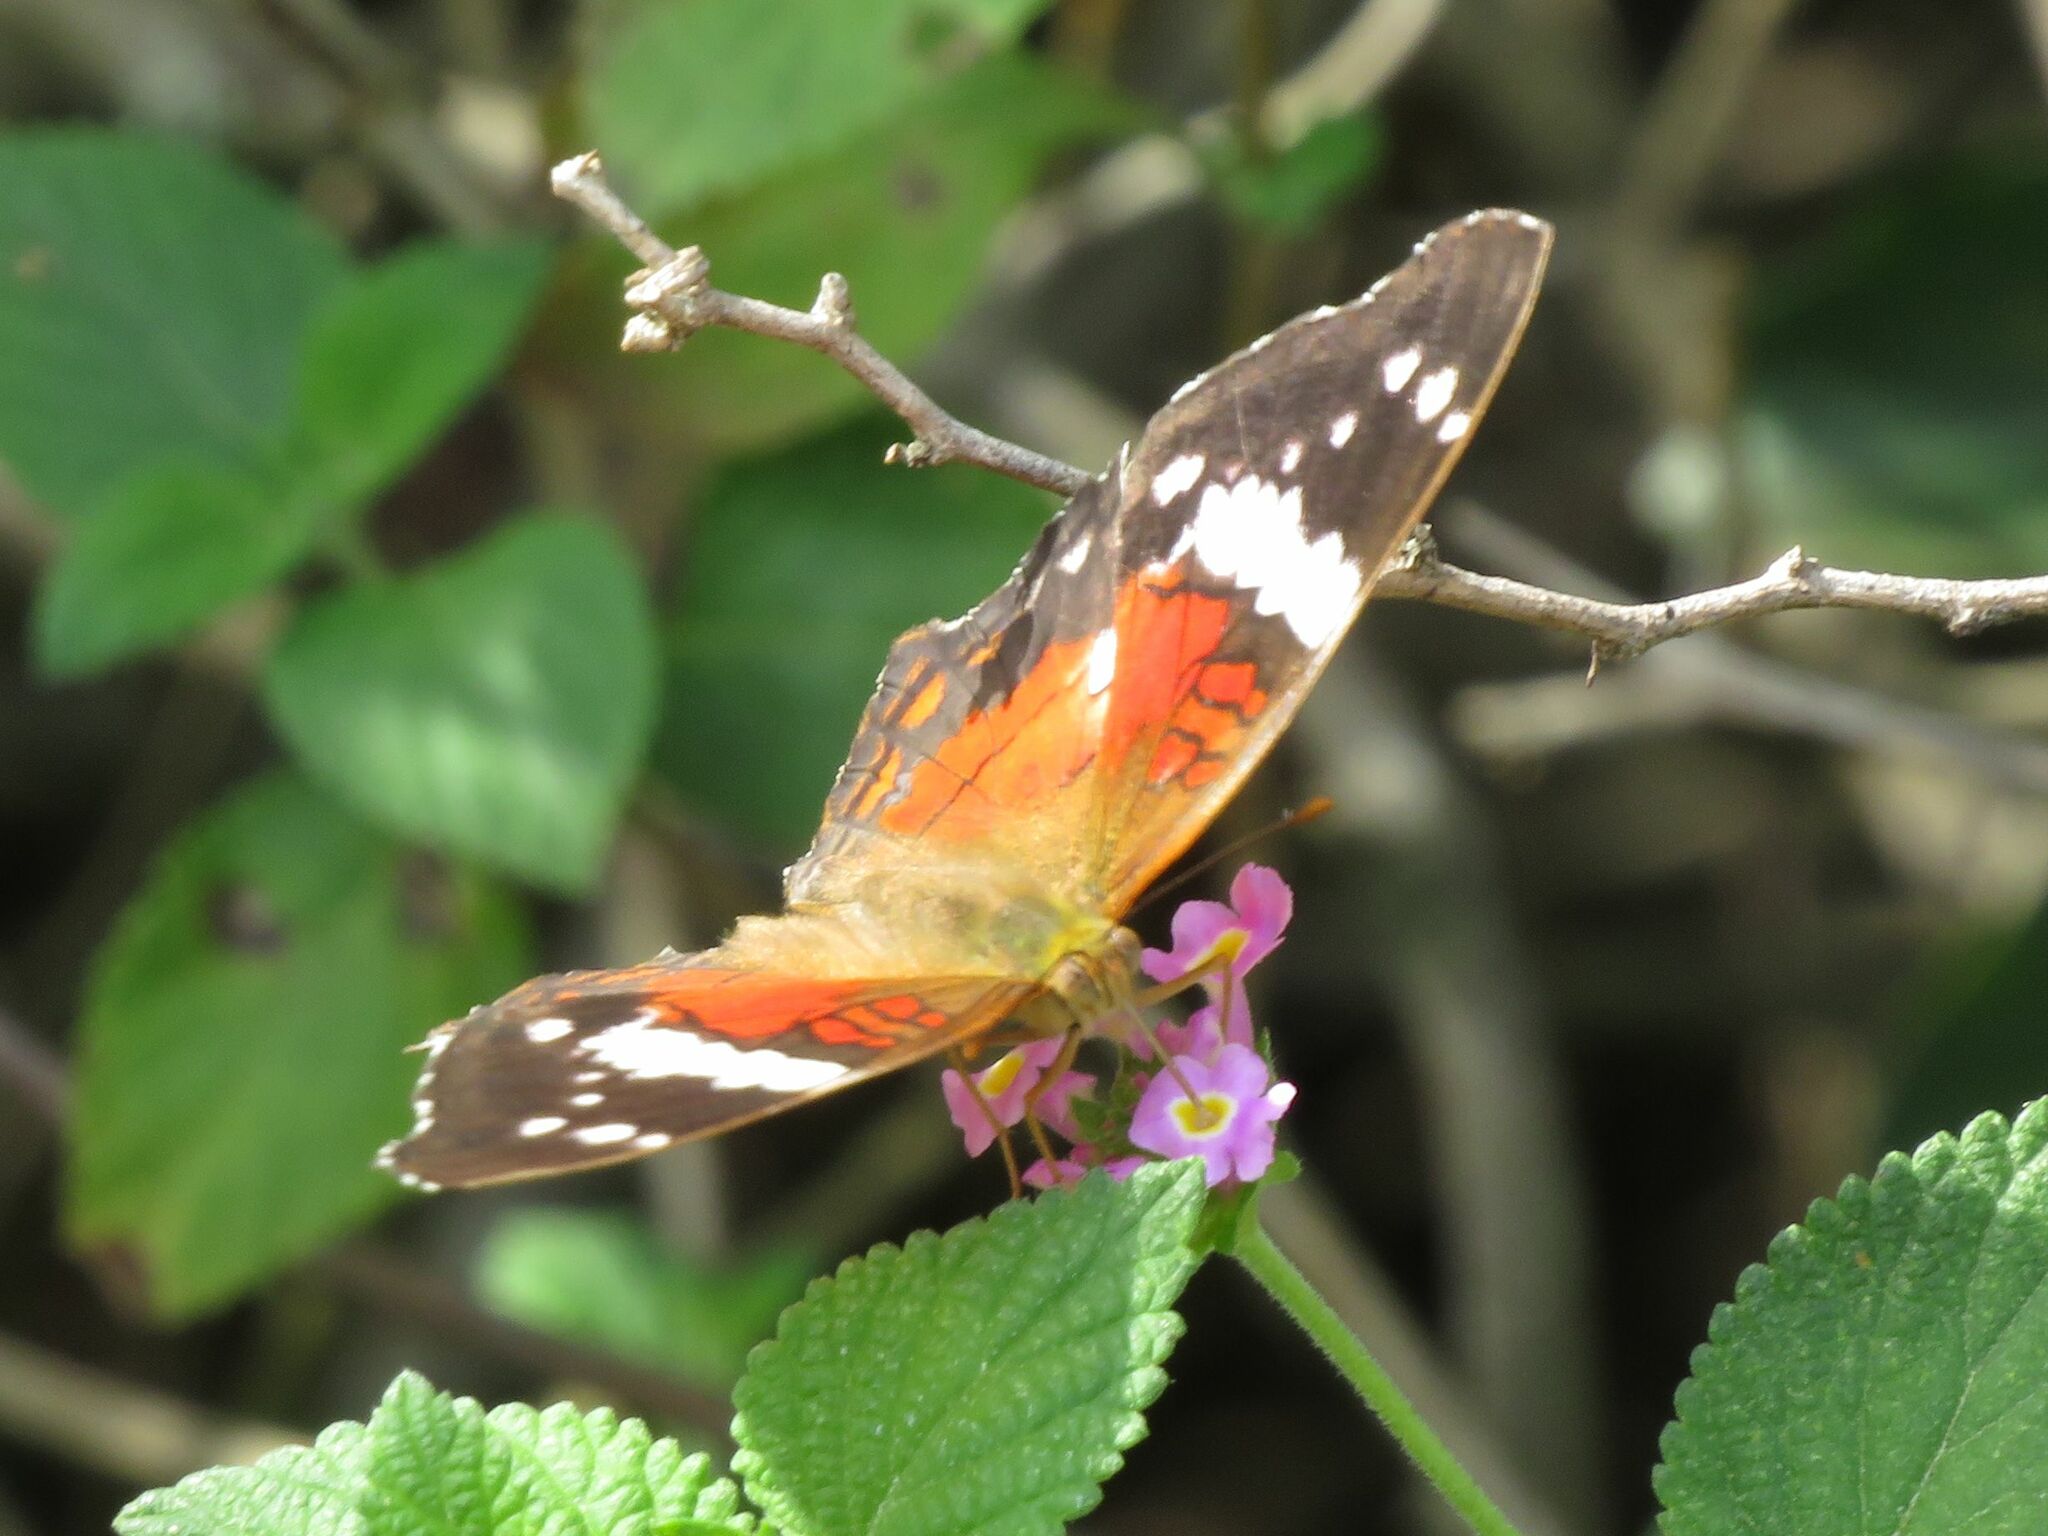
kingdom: Animalia
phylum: Arthropoda
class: Insecta
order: Lepidoptera
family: Nymphalidae
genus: Anartia
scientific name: Anartia amathea
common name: Red peacock
